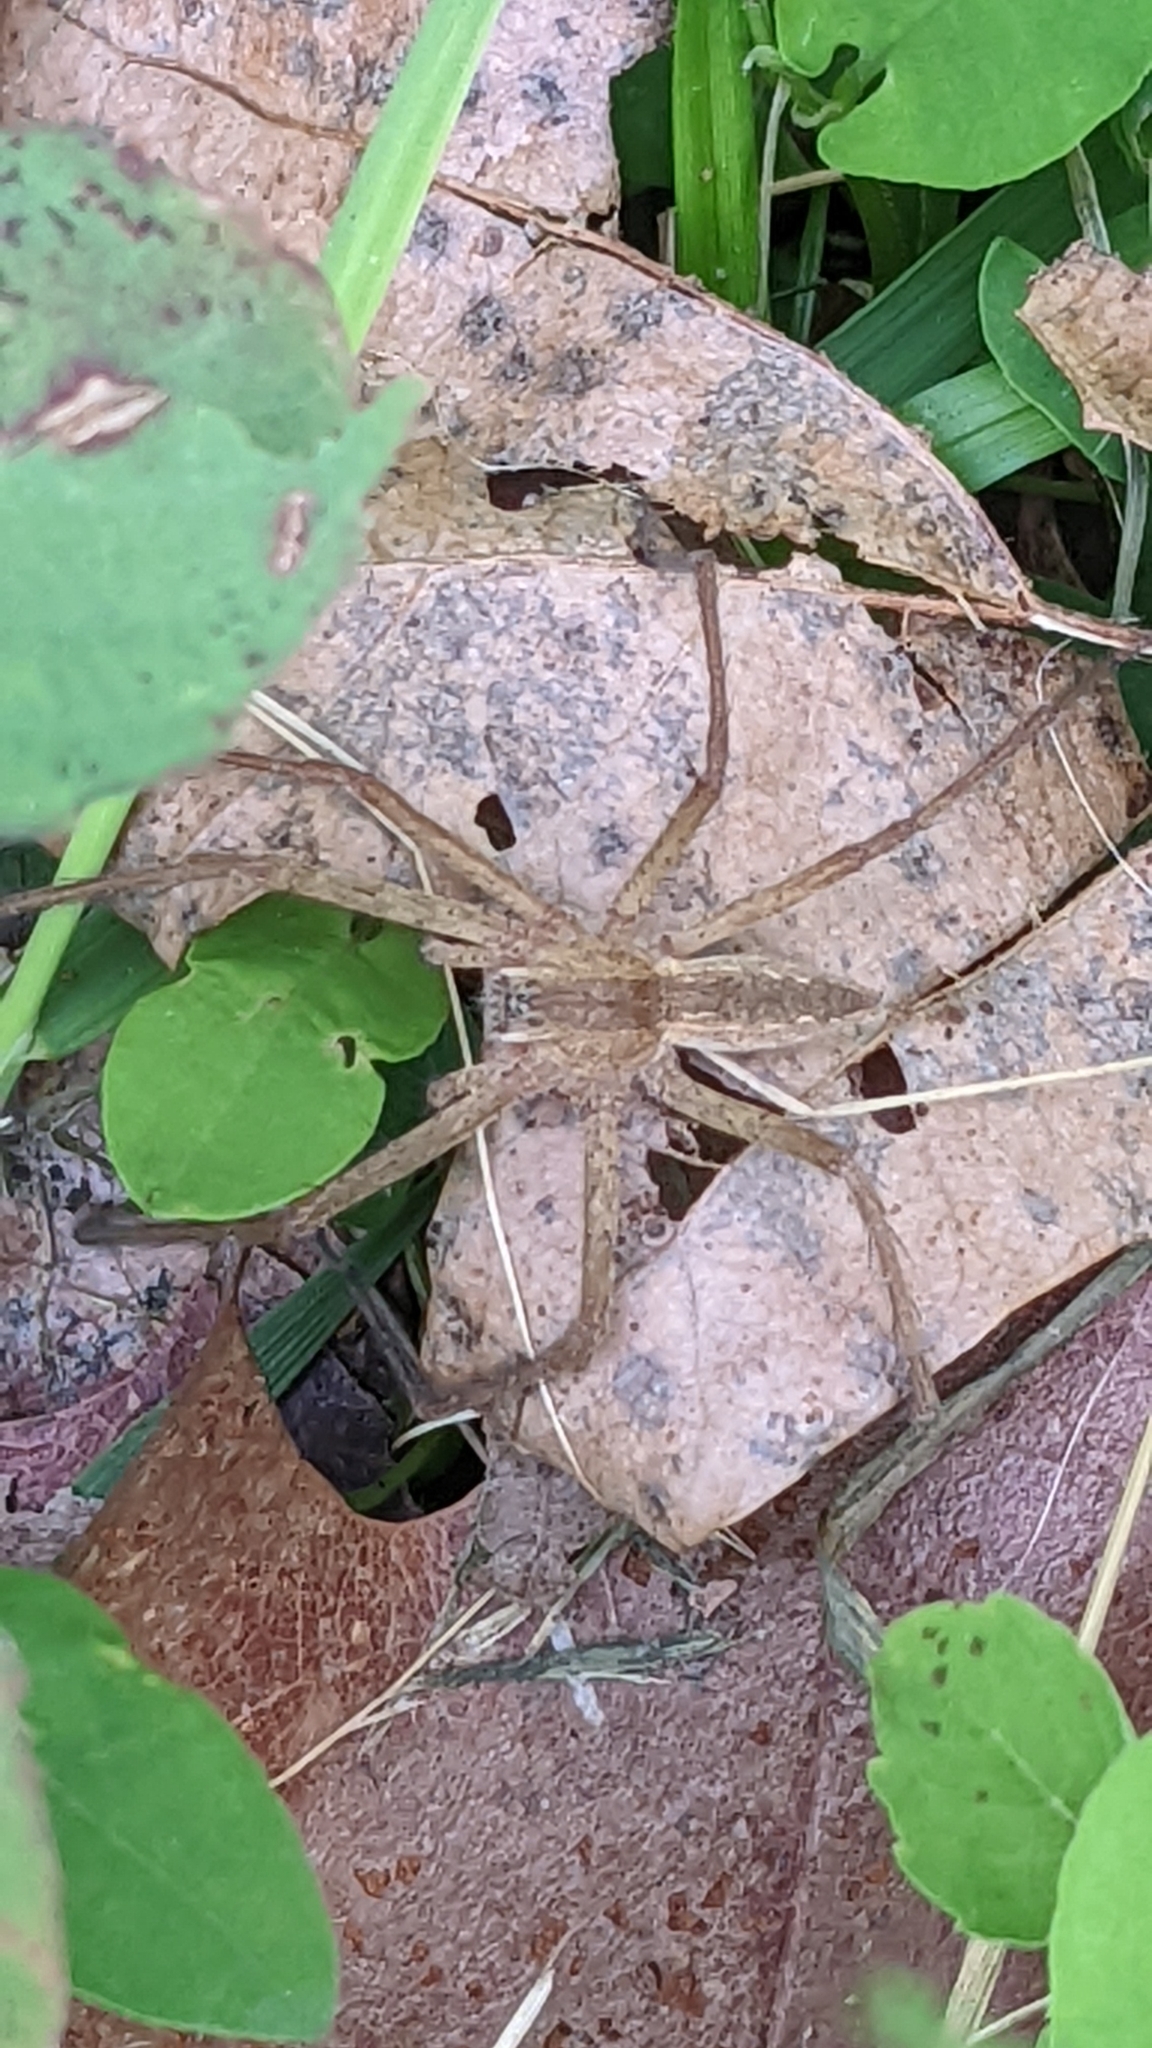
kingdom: Animalia
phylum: Arthropoda
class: Arachnida
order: Araneae
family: Pisauridae
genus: Pisaurina
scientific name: Pisaurina mira
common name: American nursery web spider
